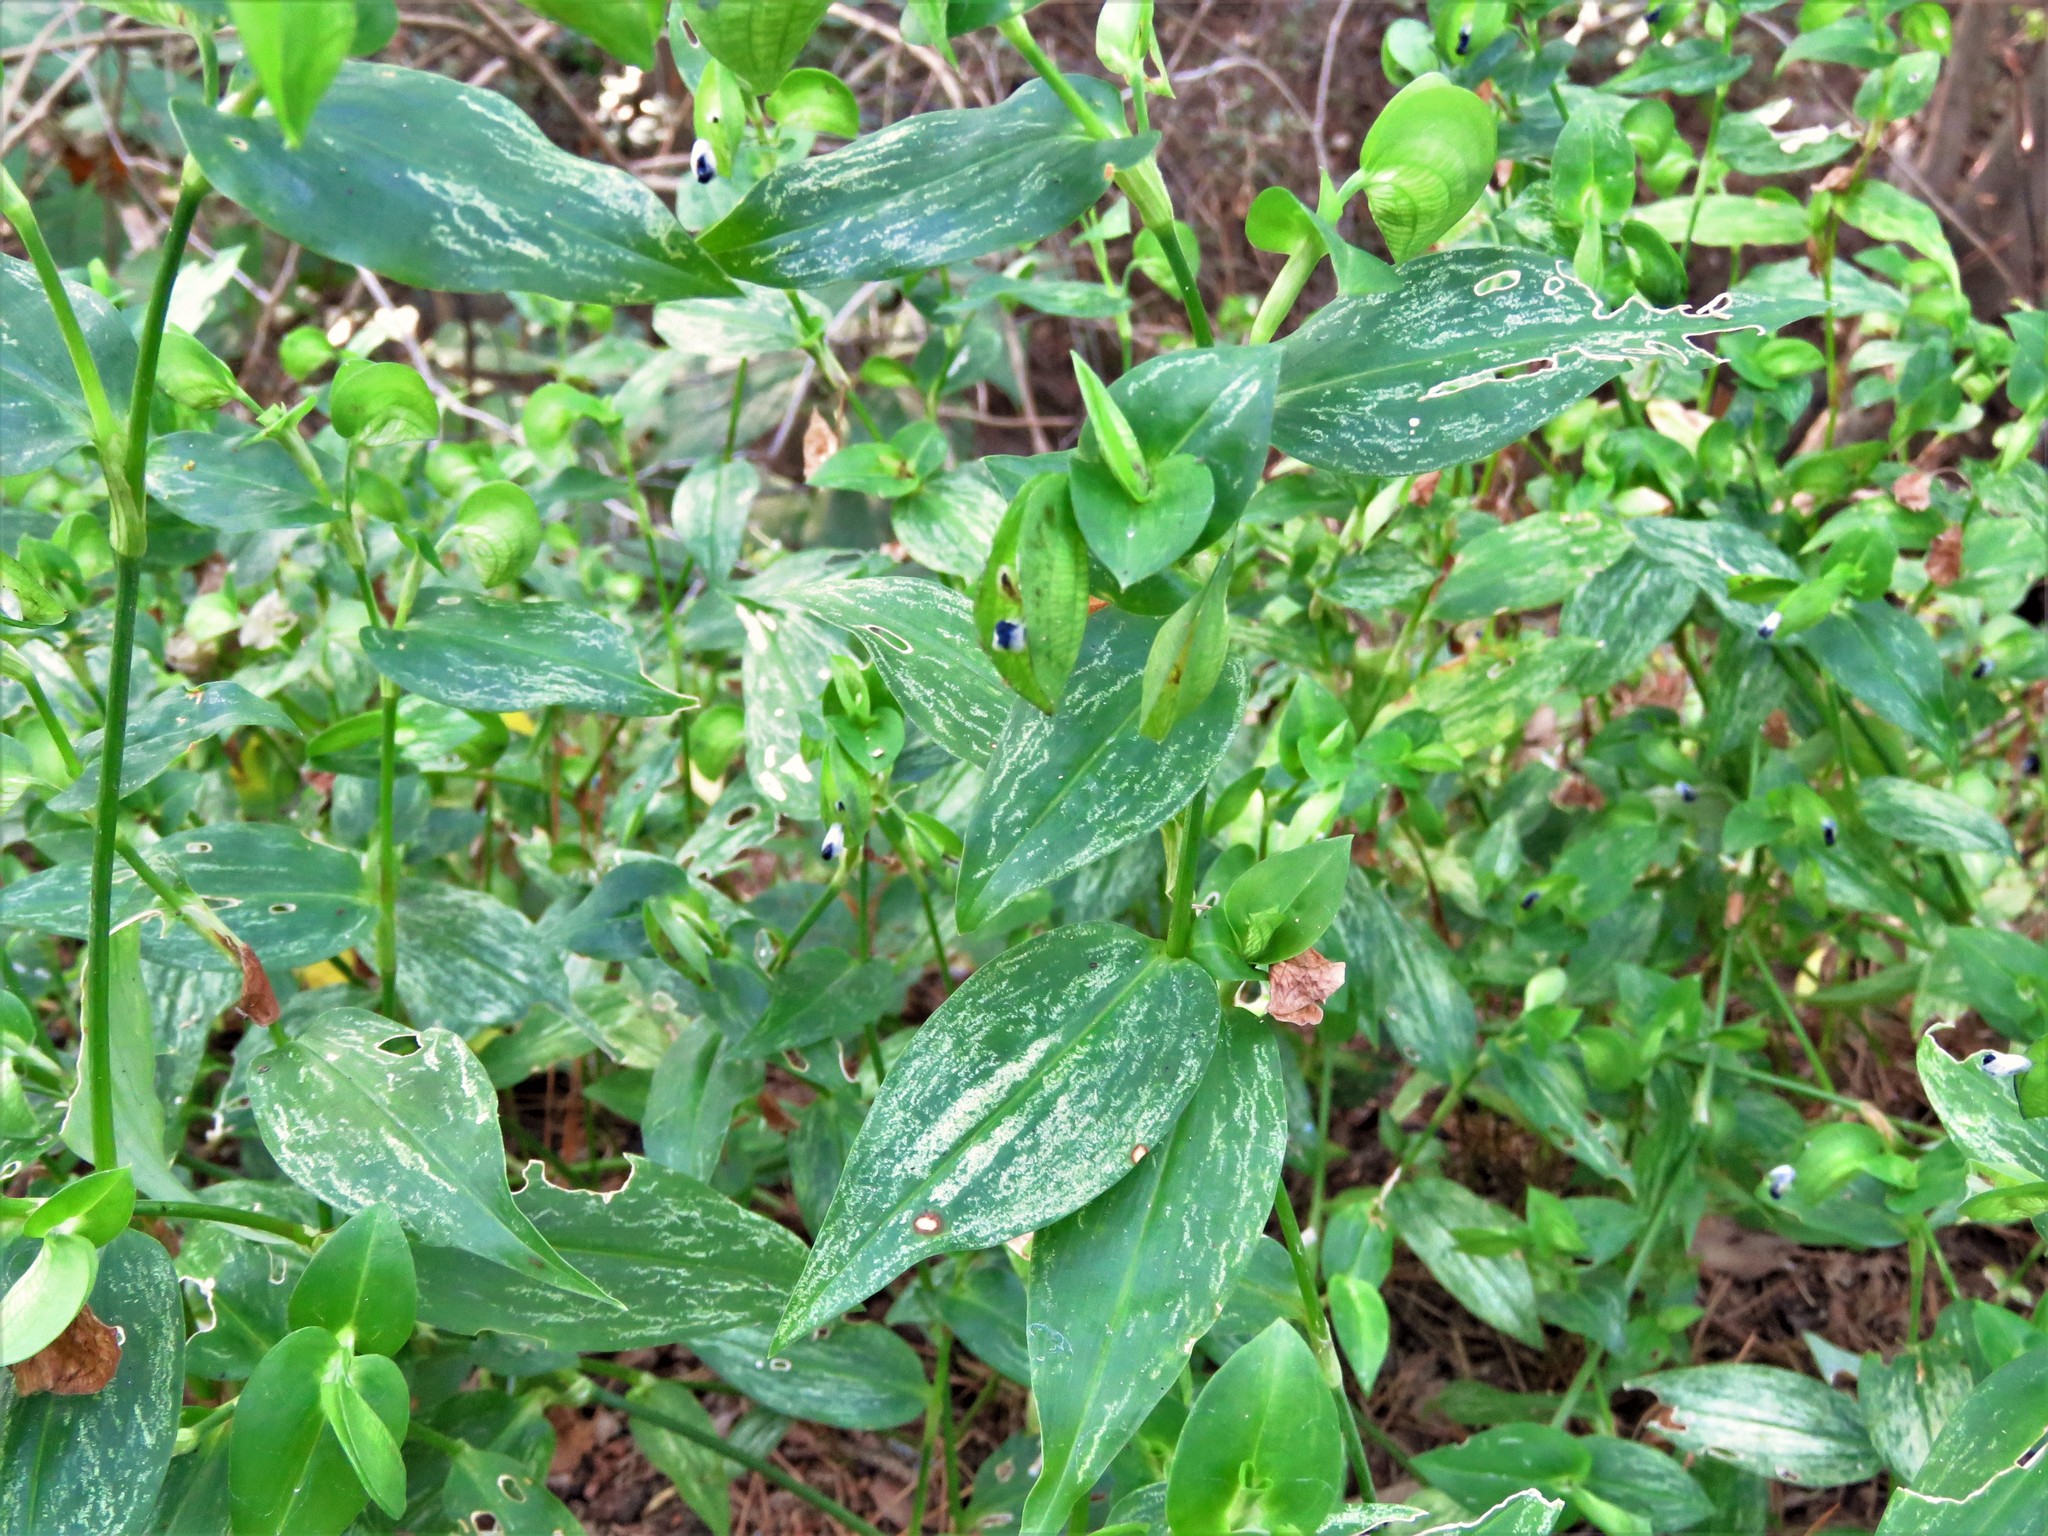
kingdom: Plantae
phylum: Tracheophyta
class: Liliopsida
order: Commelinales
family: Commelinaceae
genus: Commelina
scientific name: Commelina communis
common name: Asiatic dayflower
